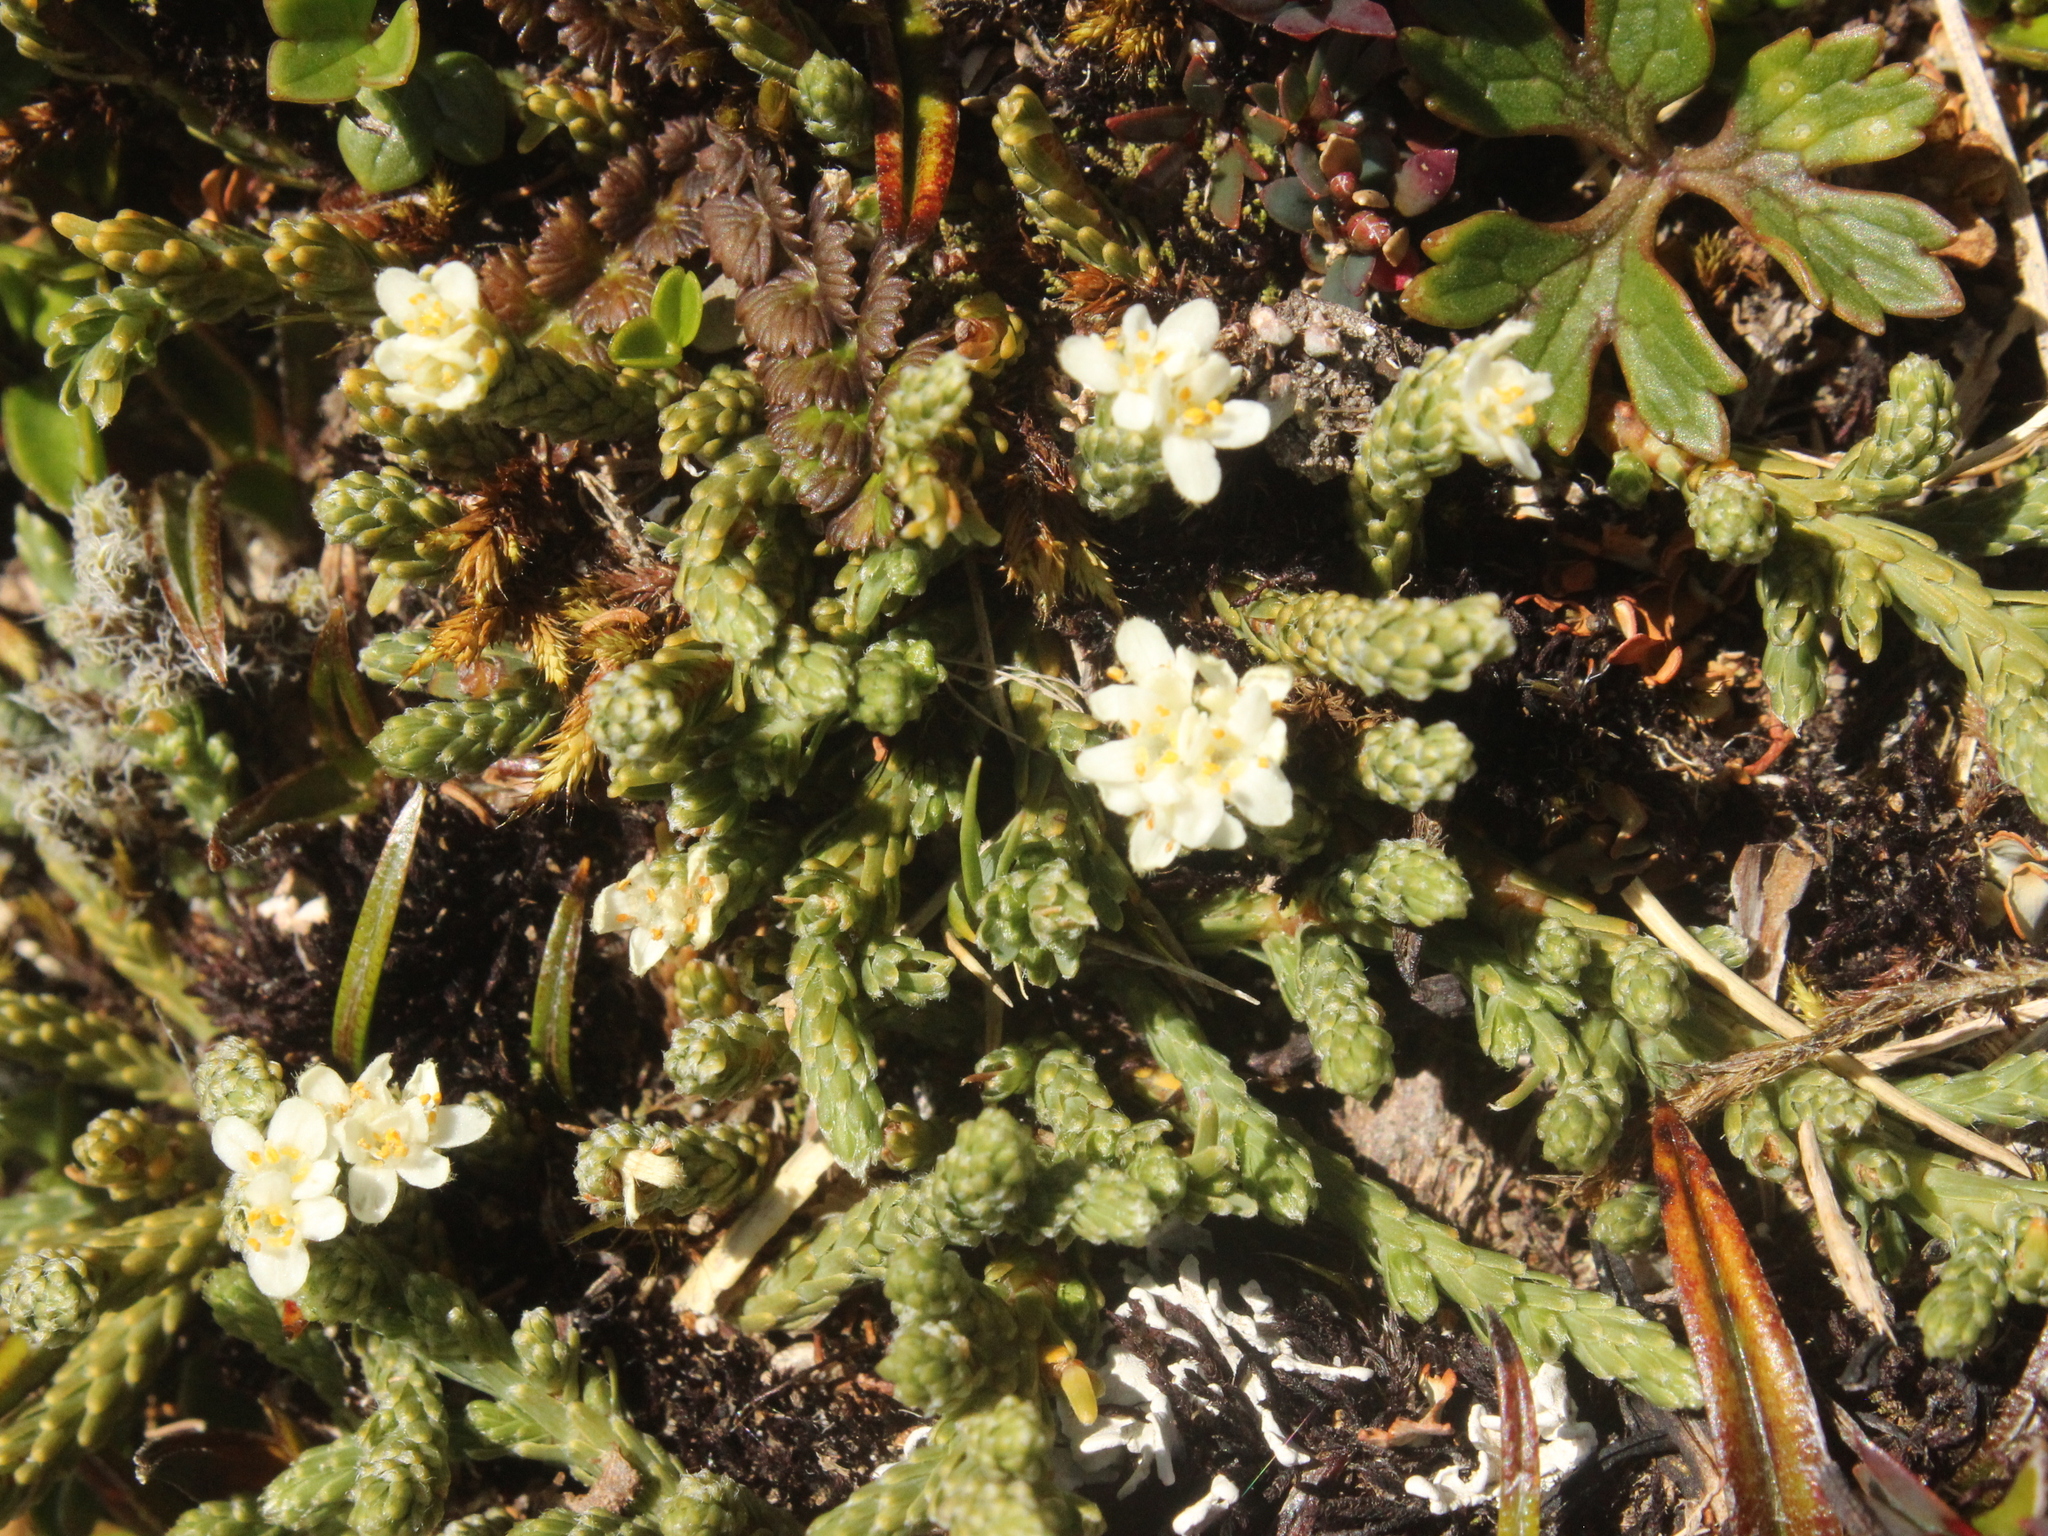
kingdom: Plantae
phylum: Tracheophyta
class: Magnoliopsida
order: Malvales
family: Thymelaeaceae
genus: Kelleria
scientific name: Kelleria dieffenbachii
